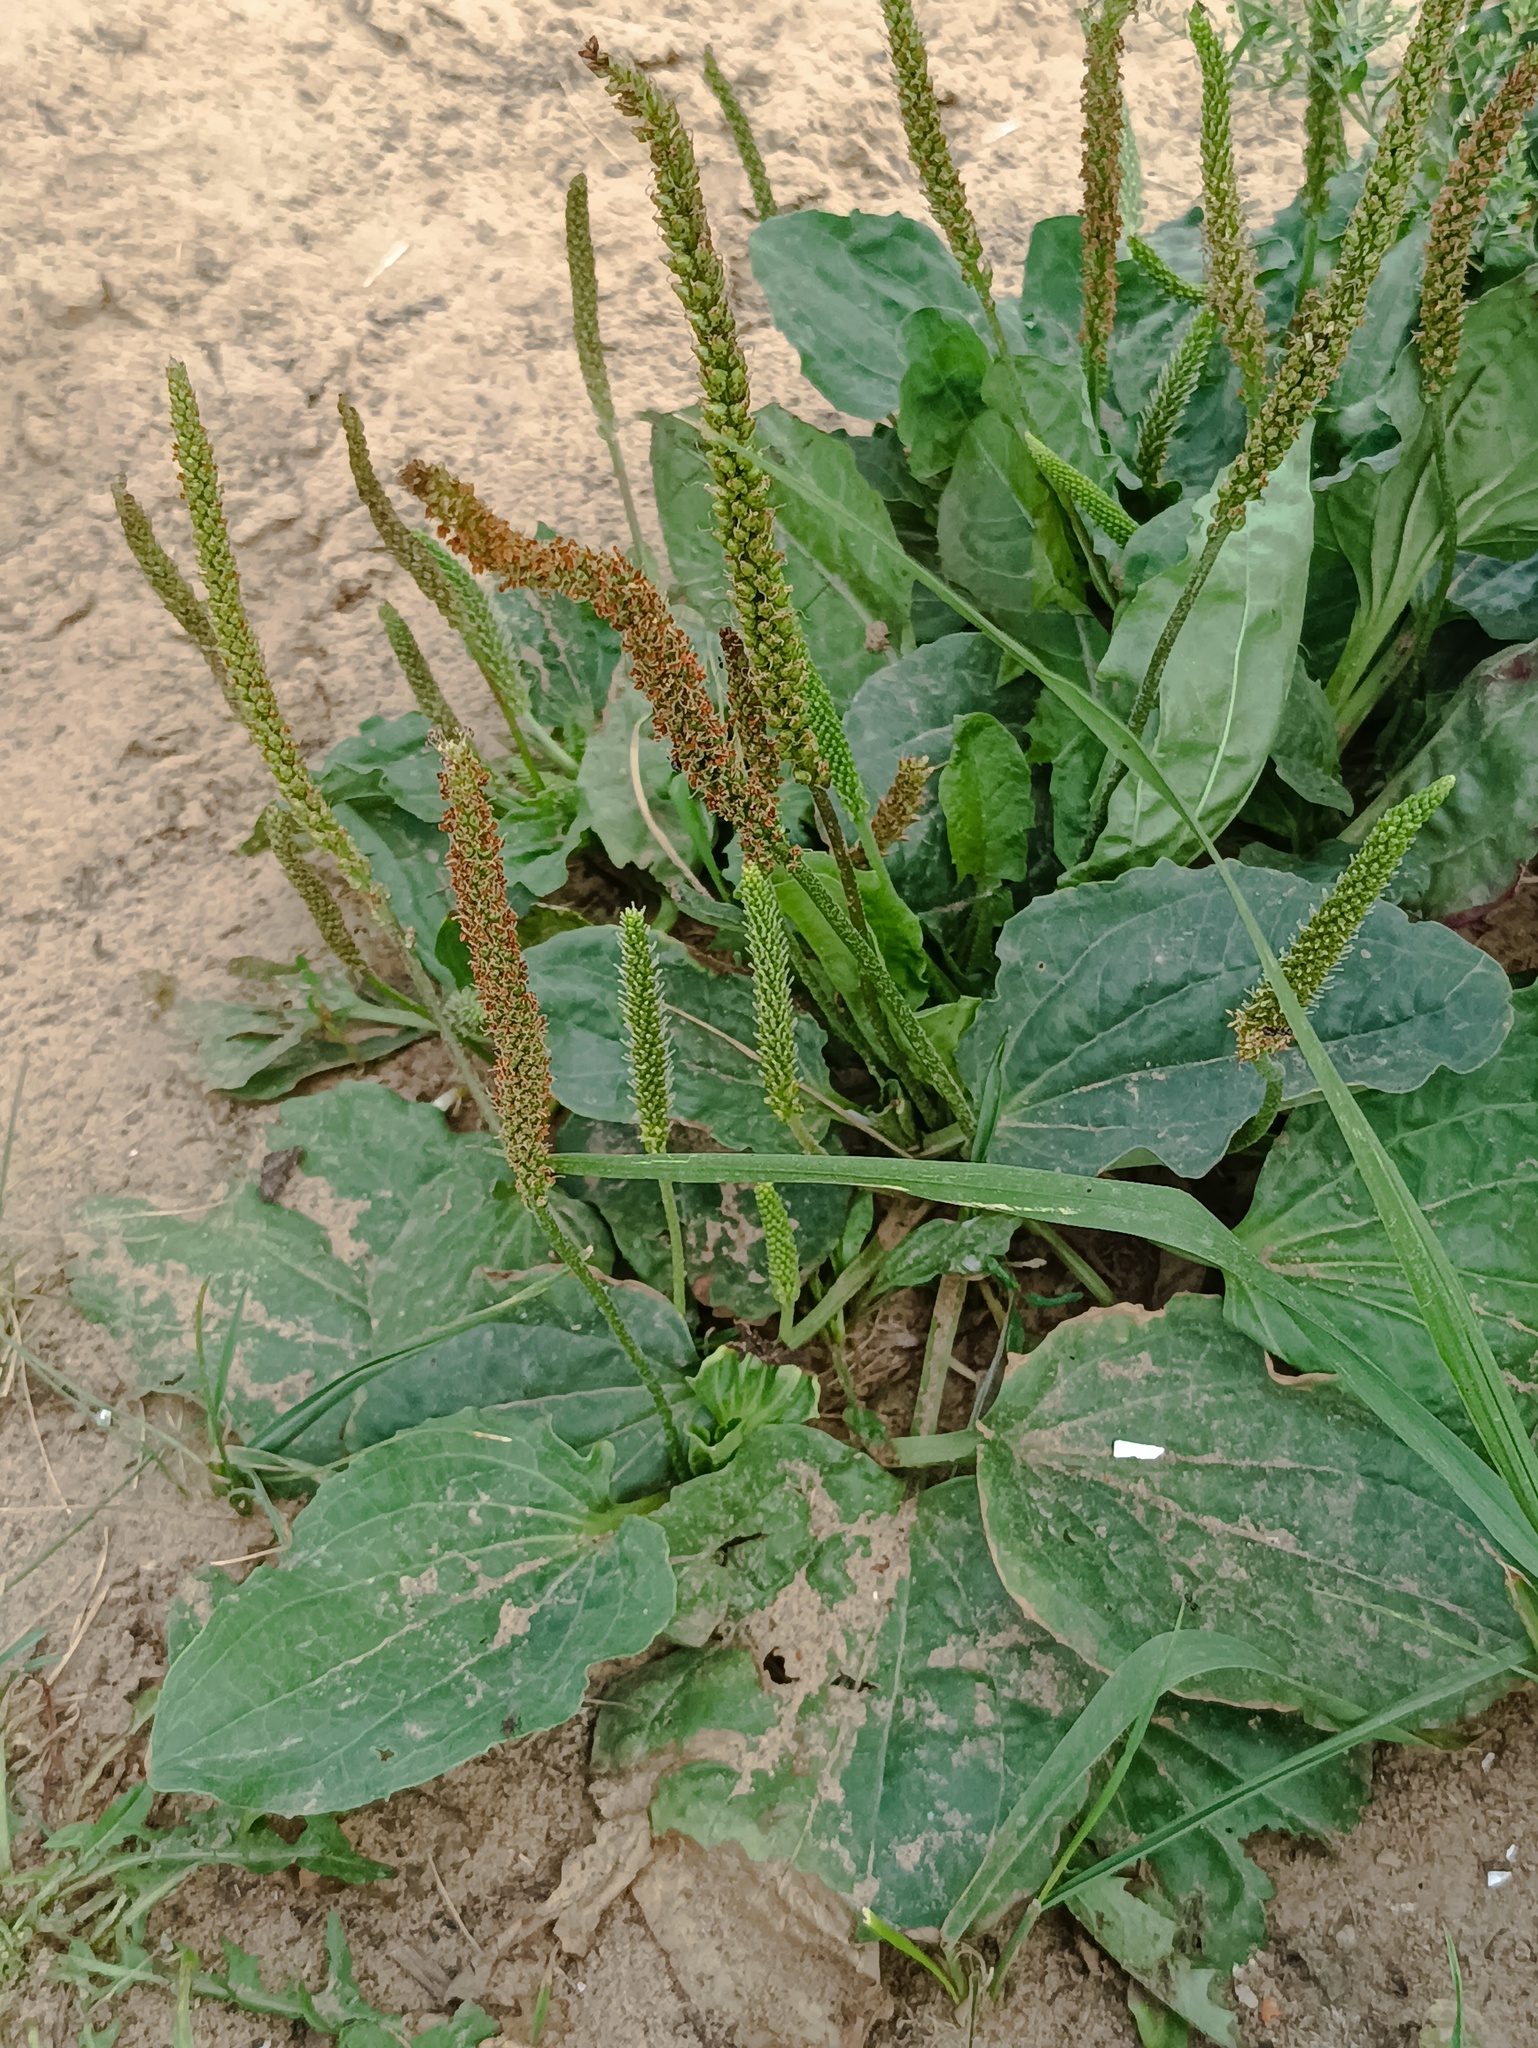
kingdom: Plantae
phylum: Tracheophyta
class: Magnoliopsida
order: Lamiales
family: Plantaginaceae
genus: Plantago
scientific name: Plantago major
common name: Common plantain
